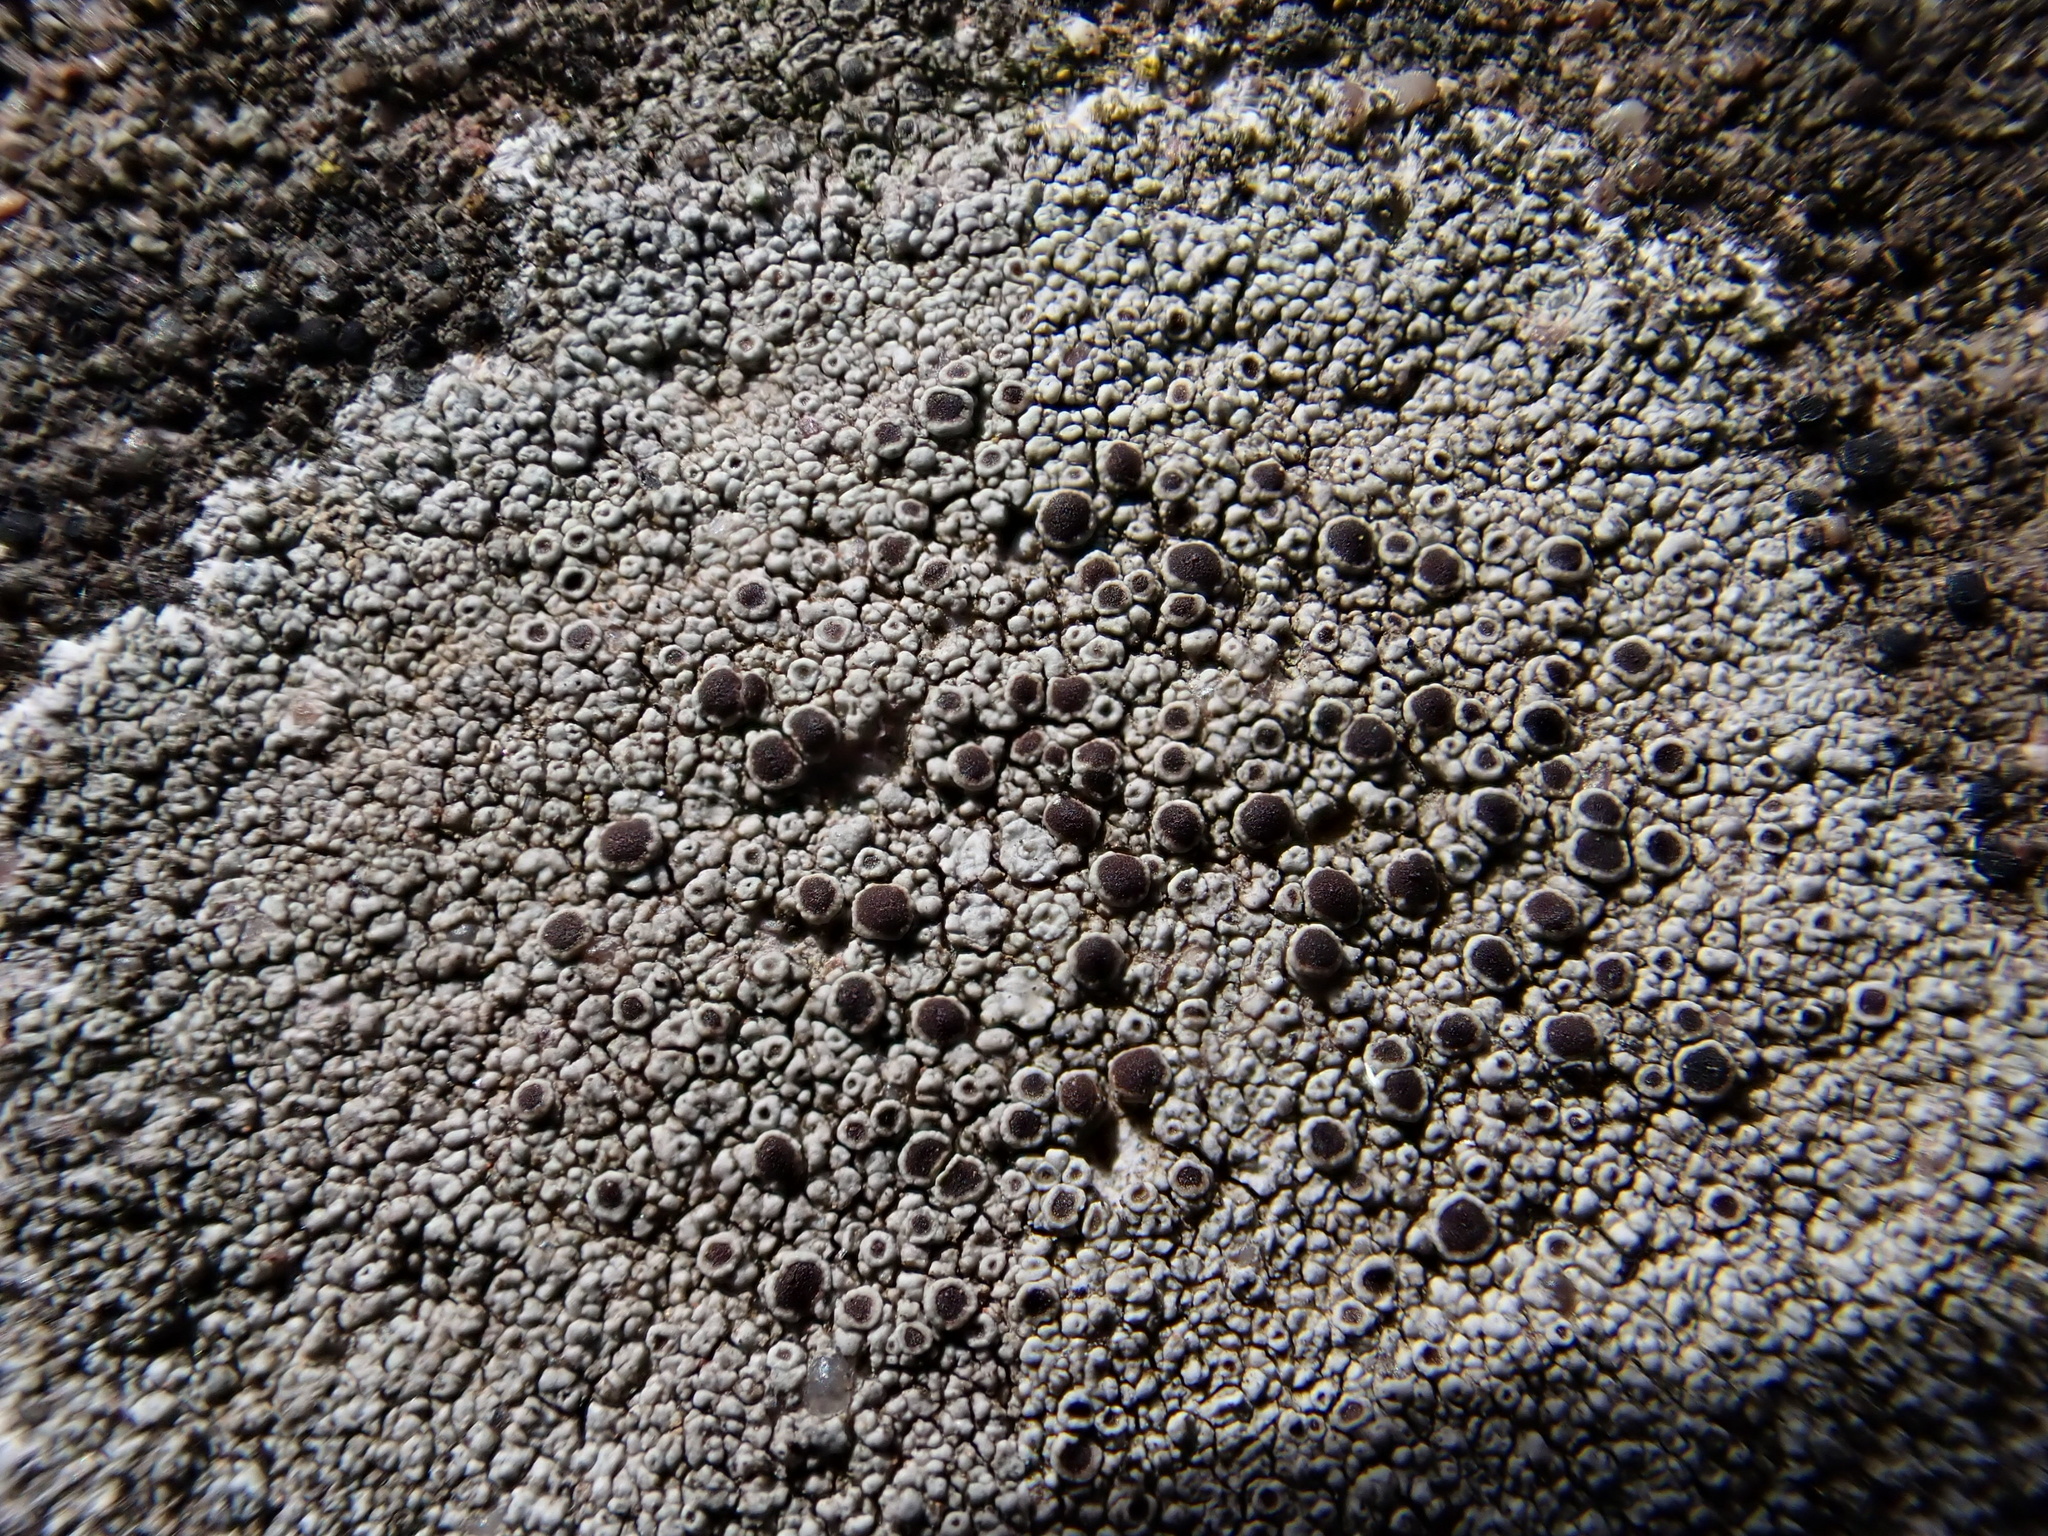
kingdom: Fungi
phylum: Ascomycota
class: Lecanoromycetes
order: Lecanorales
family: Lecanoraceae
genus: Lecanora
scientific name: Lecanora campestris
